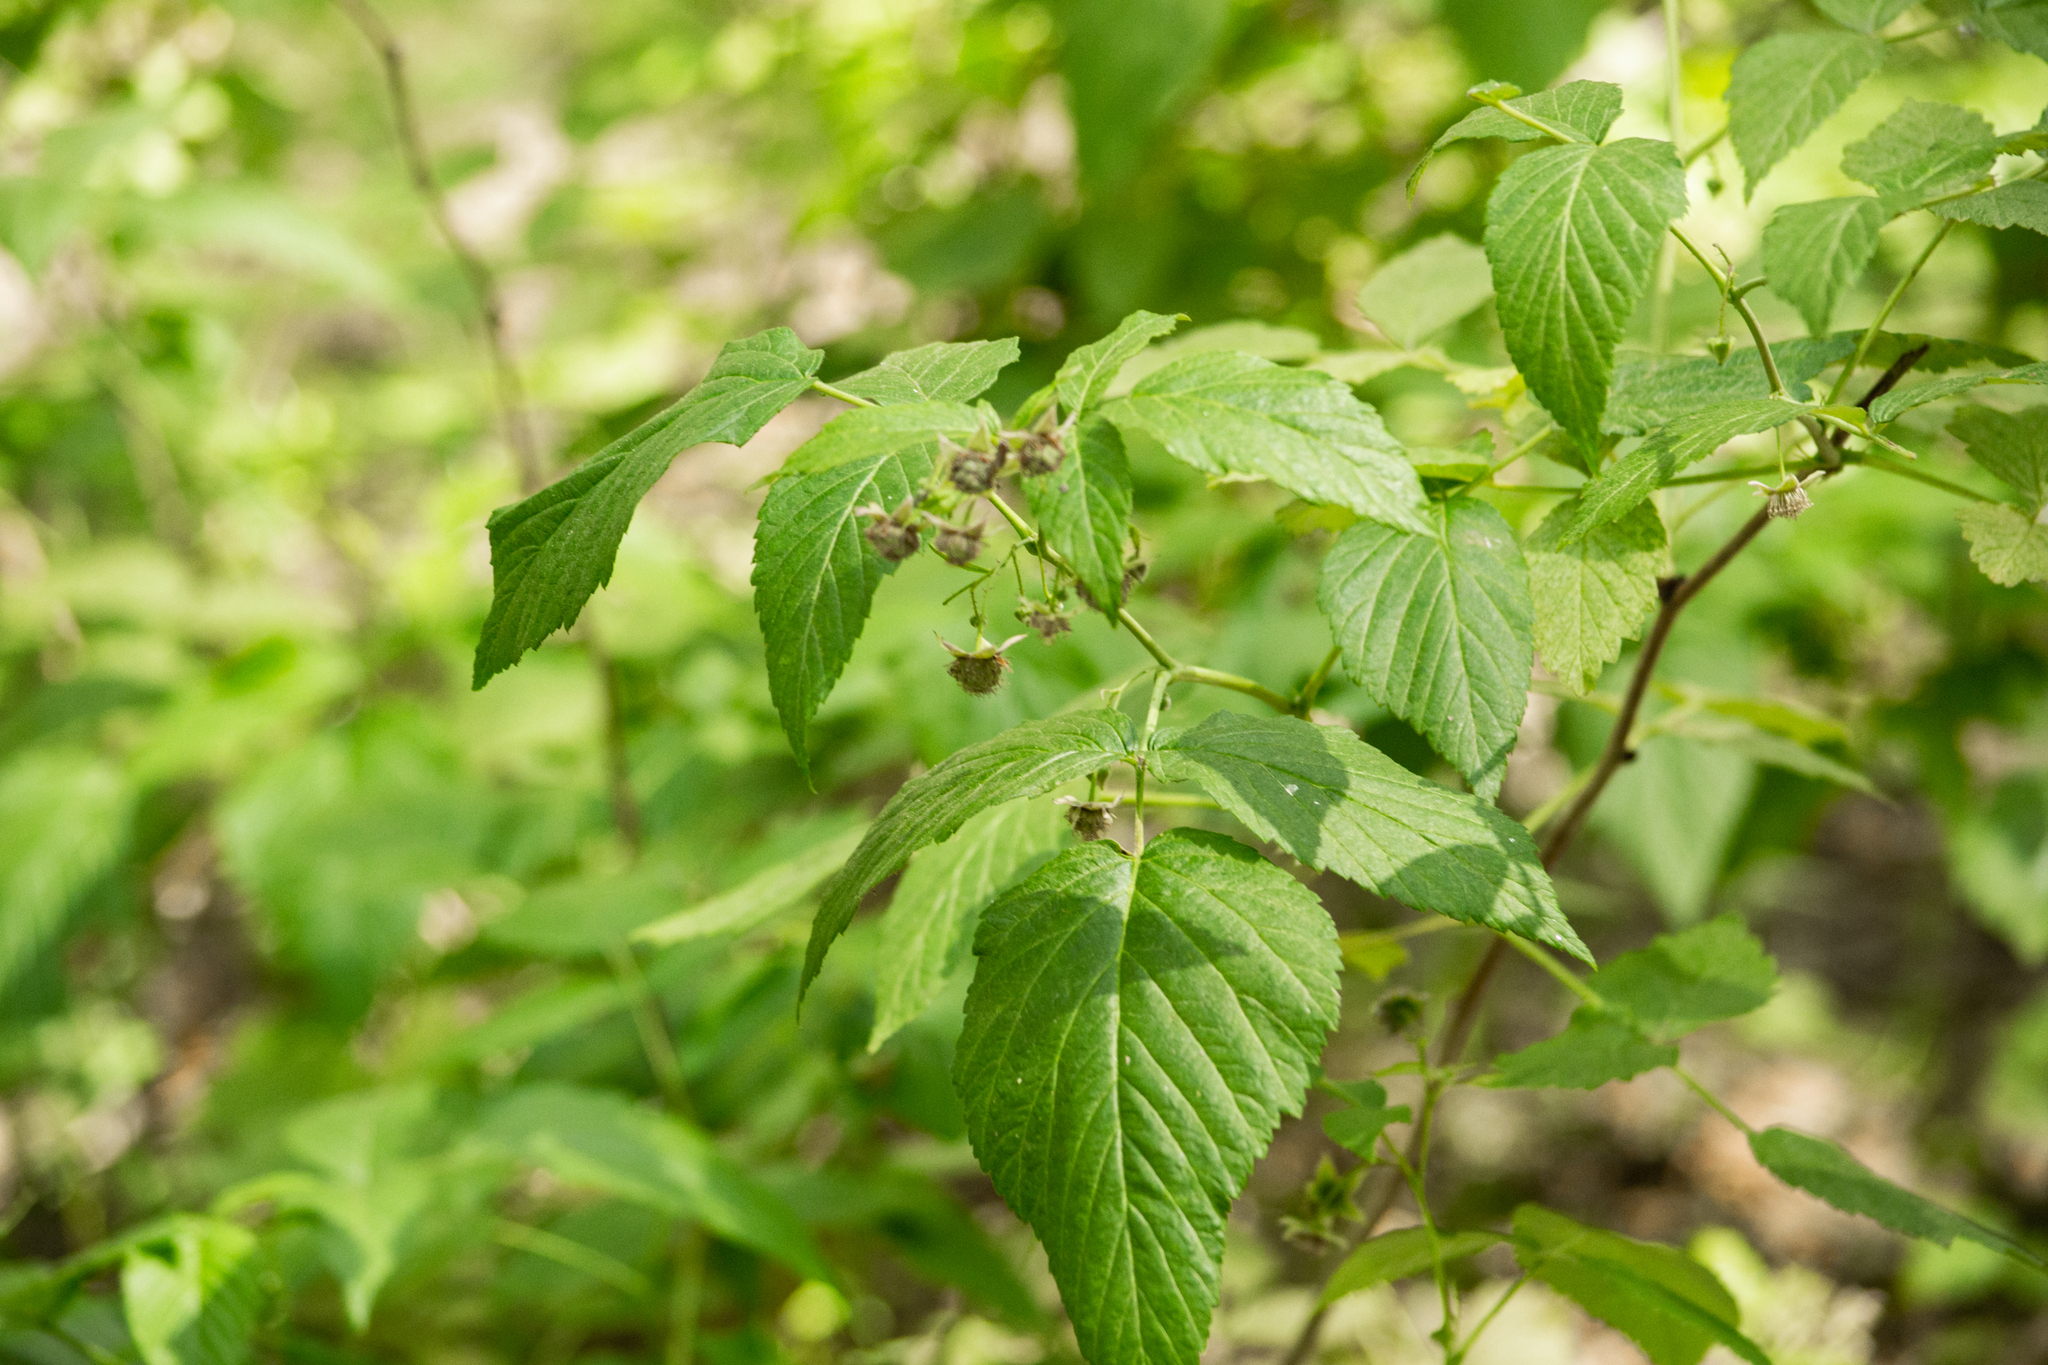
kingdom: Plantae
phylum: Tracheophyta
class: Magnoliopsida
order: Rosales
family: Rosaceae
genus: Rubus
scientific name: Rubus idaeus
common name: Raspberry
